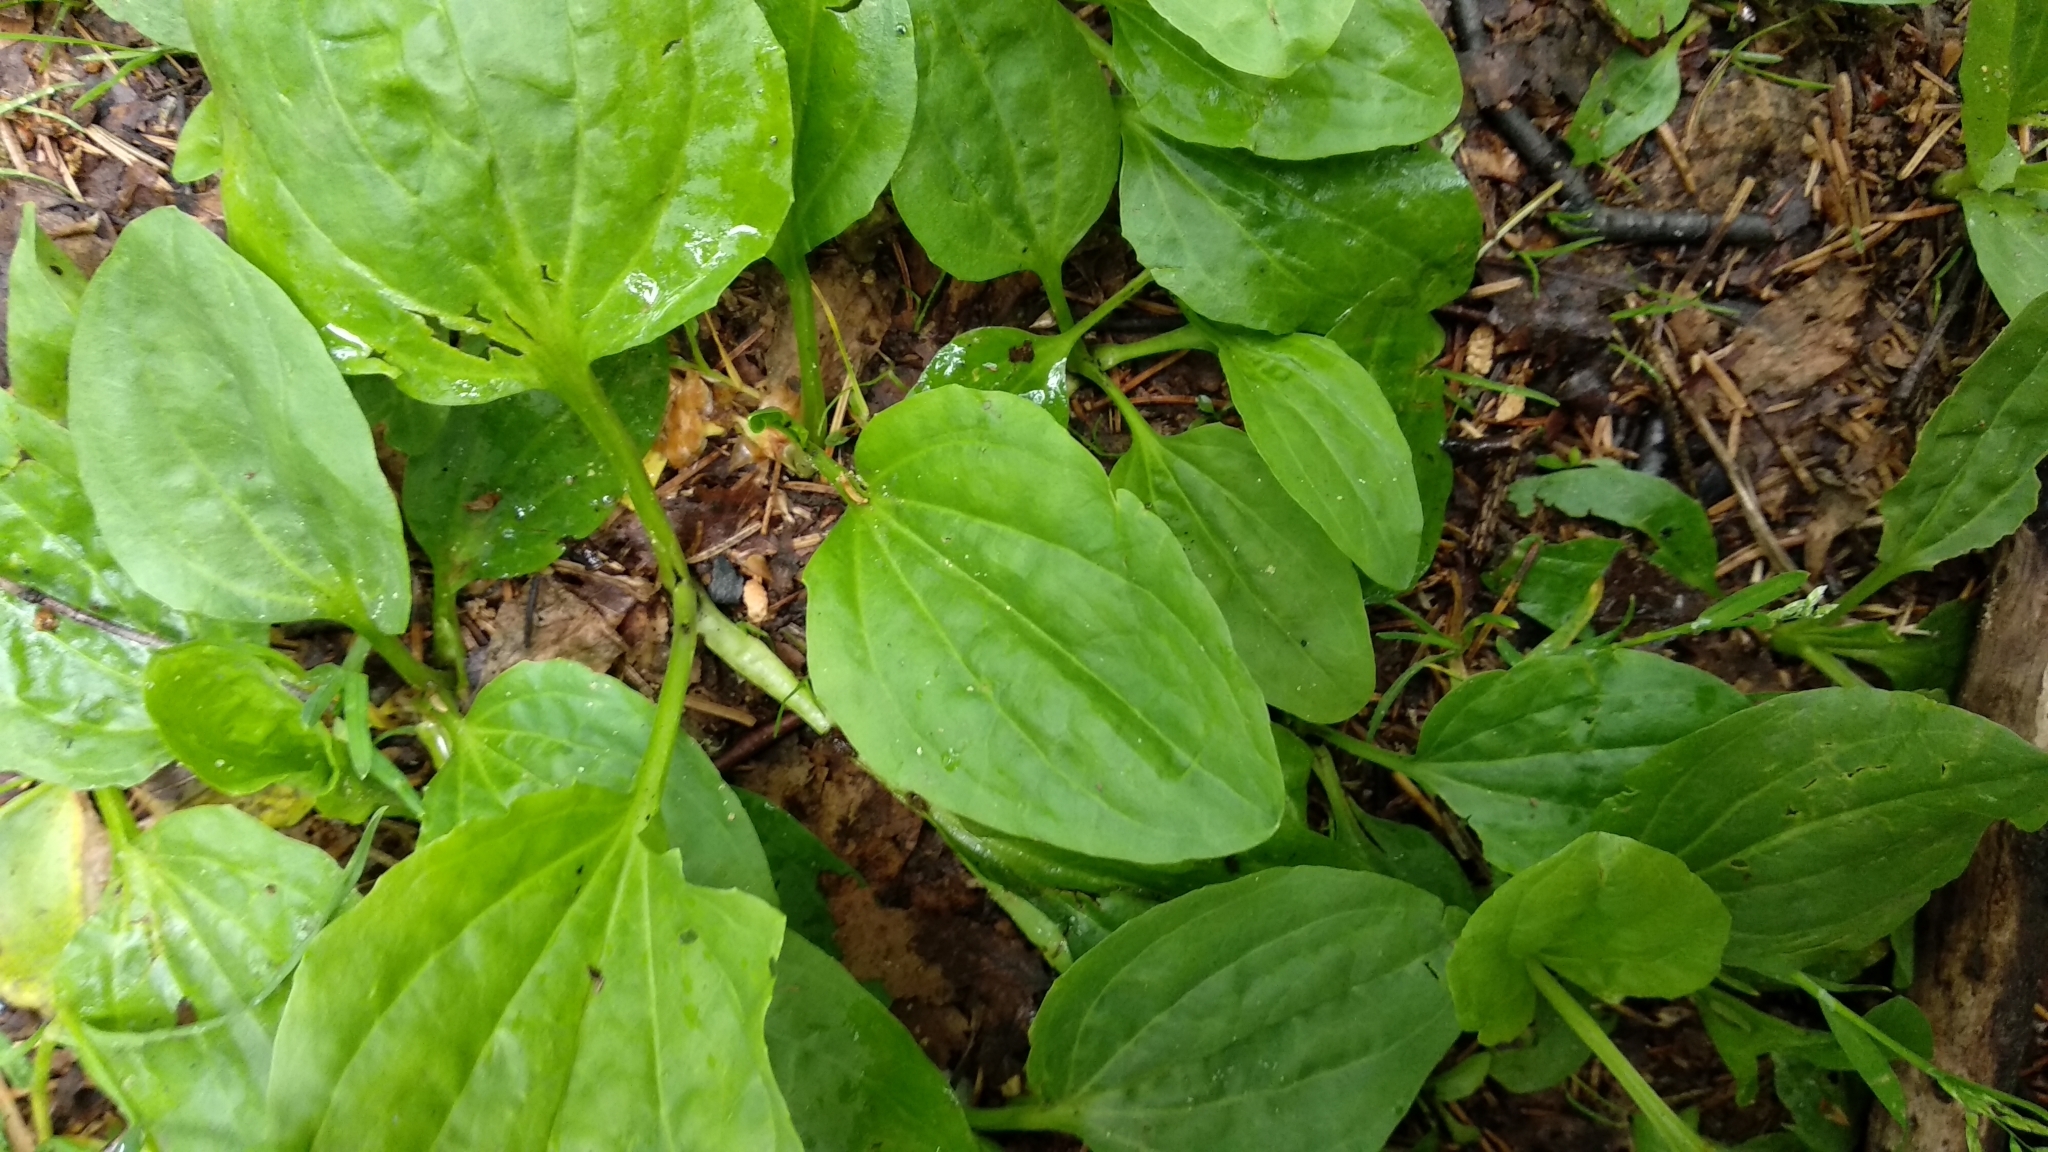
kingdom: Plantae
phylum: Tracheophyta
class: Magnoliopsida
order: Lamiales
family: Plantaginaceae
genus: Plantago
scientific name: Plantago major
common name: Common plantain
